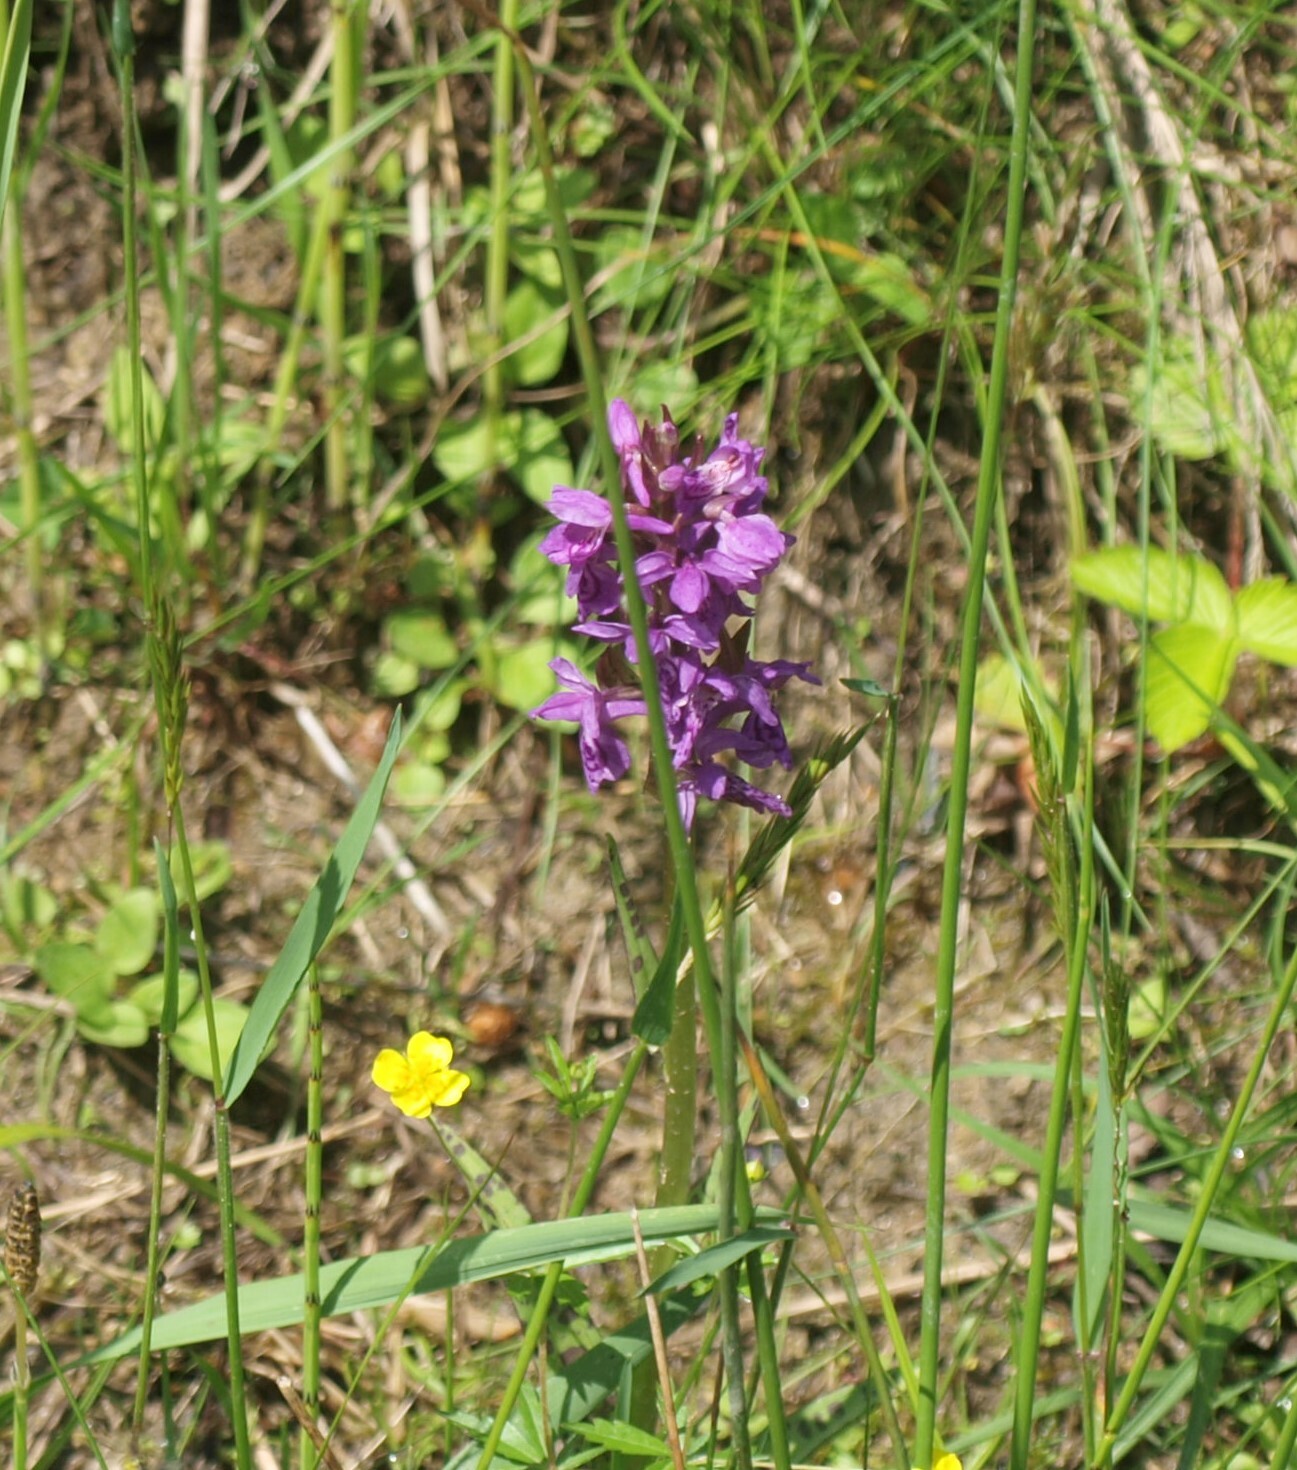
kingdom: Plantae
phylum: Tracheophyta
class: Liliopsida
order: Asparagales
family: Orchidaceae
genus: Dactylorhiza
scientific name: Dactylorhiza majalis
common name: Marsh orchid
